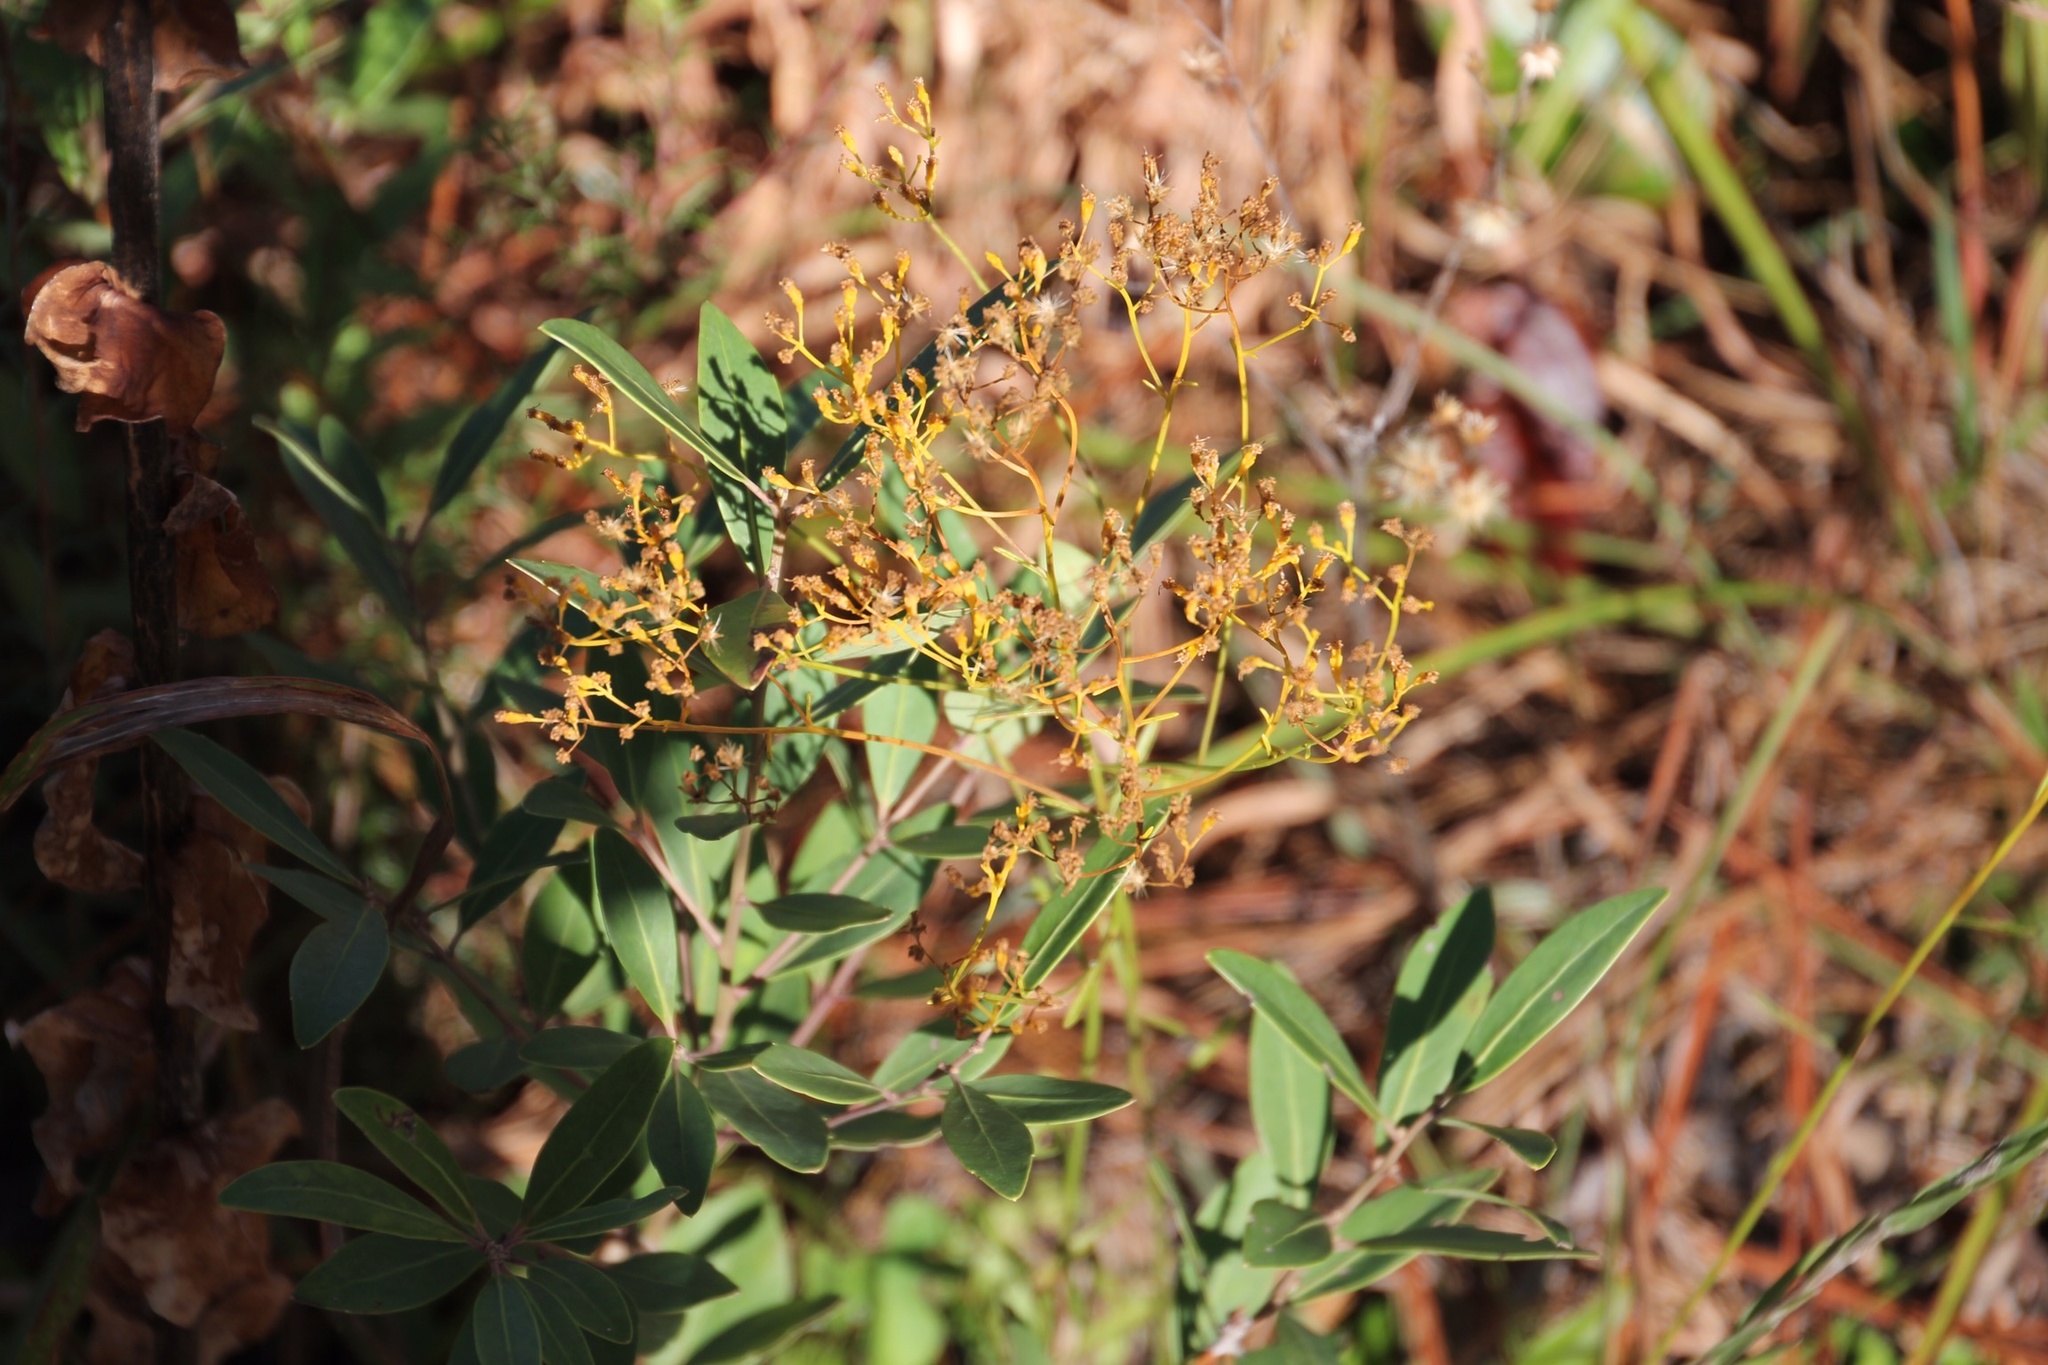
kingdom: Plantae
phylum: Tracheophyta
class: Magnoliopsida
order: Asterales
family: Asteraceae
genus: Bigelowia
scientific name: Bigelowia nudata
